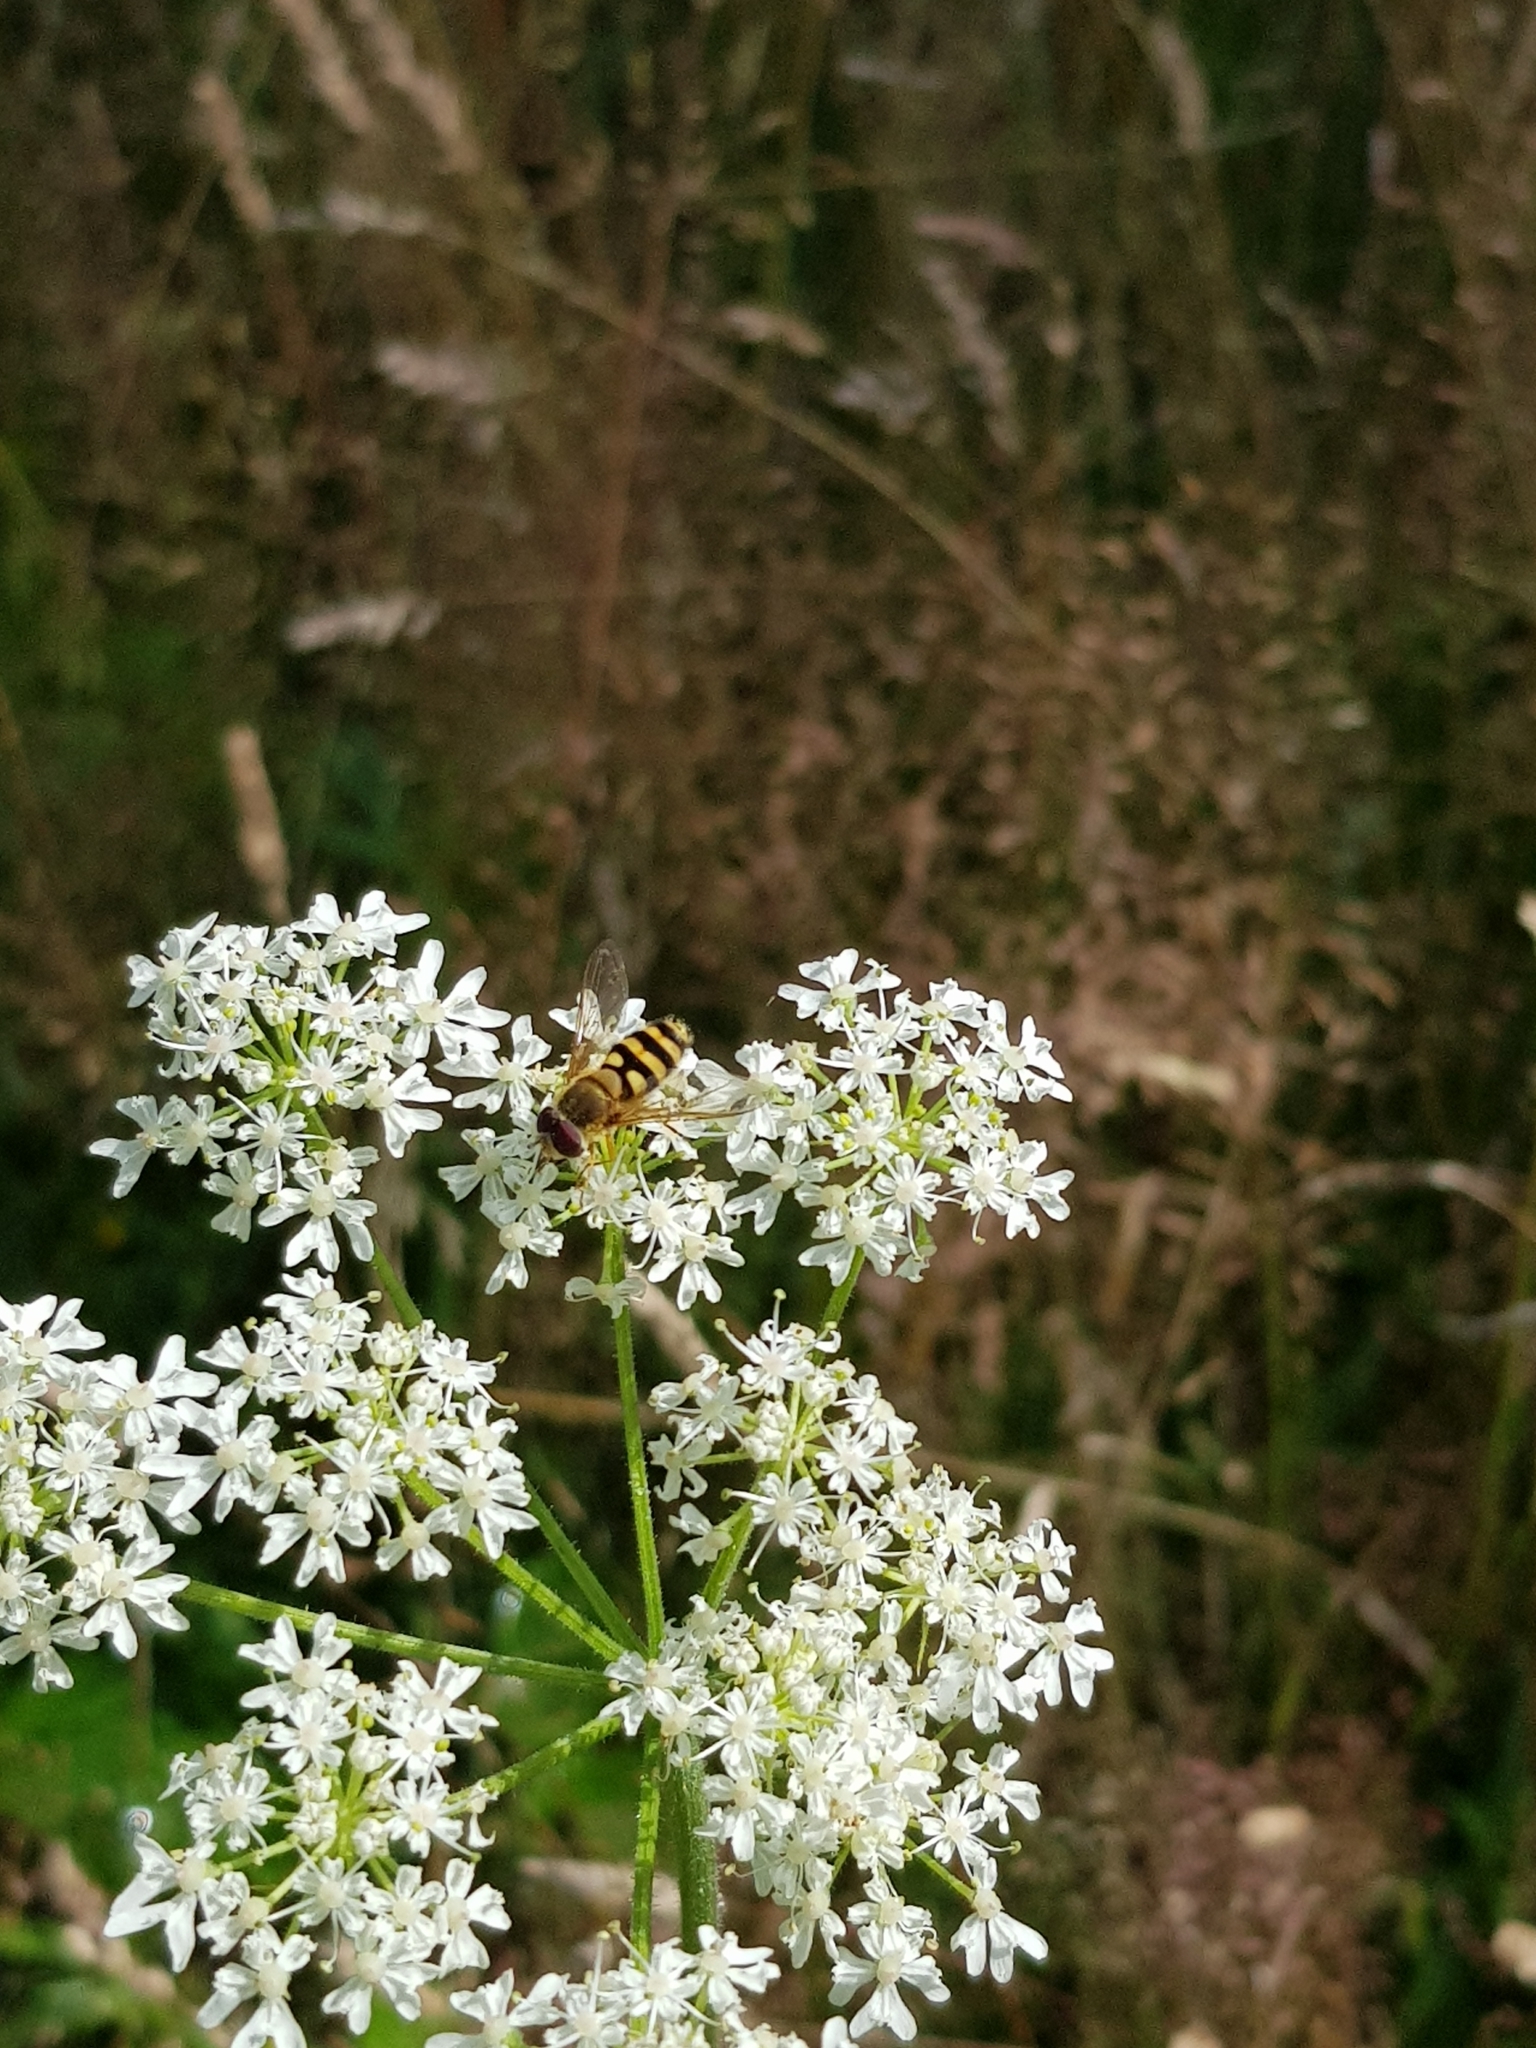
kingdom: Animalia
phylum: Arthropoda
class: Insecta
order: Diptera
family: Syrphidae
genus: Syrphus
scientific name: Syrphus
